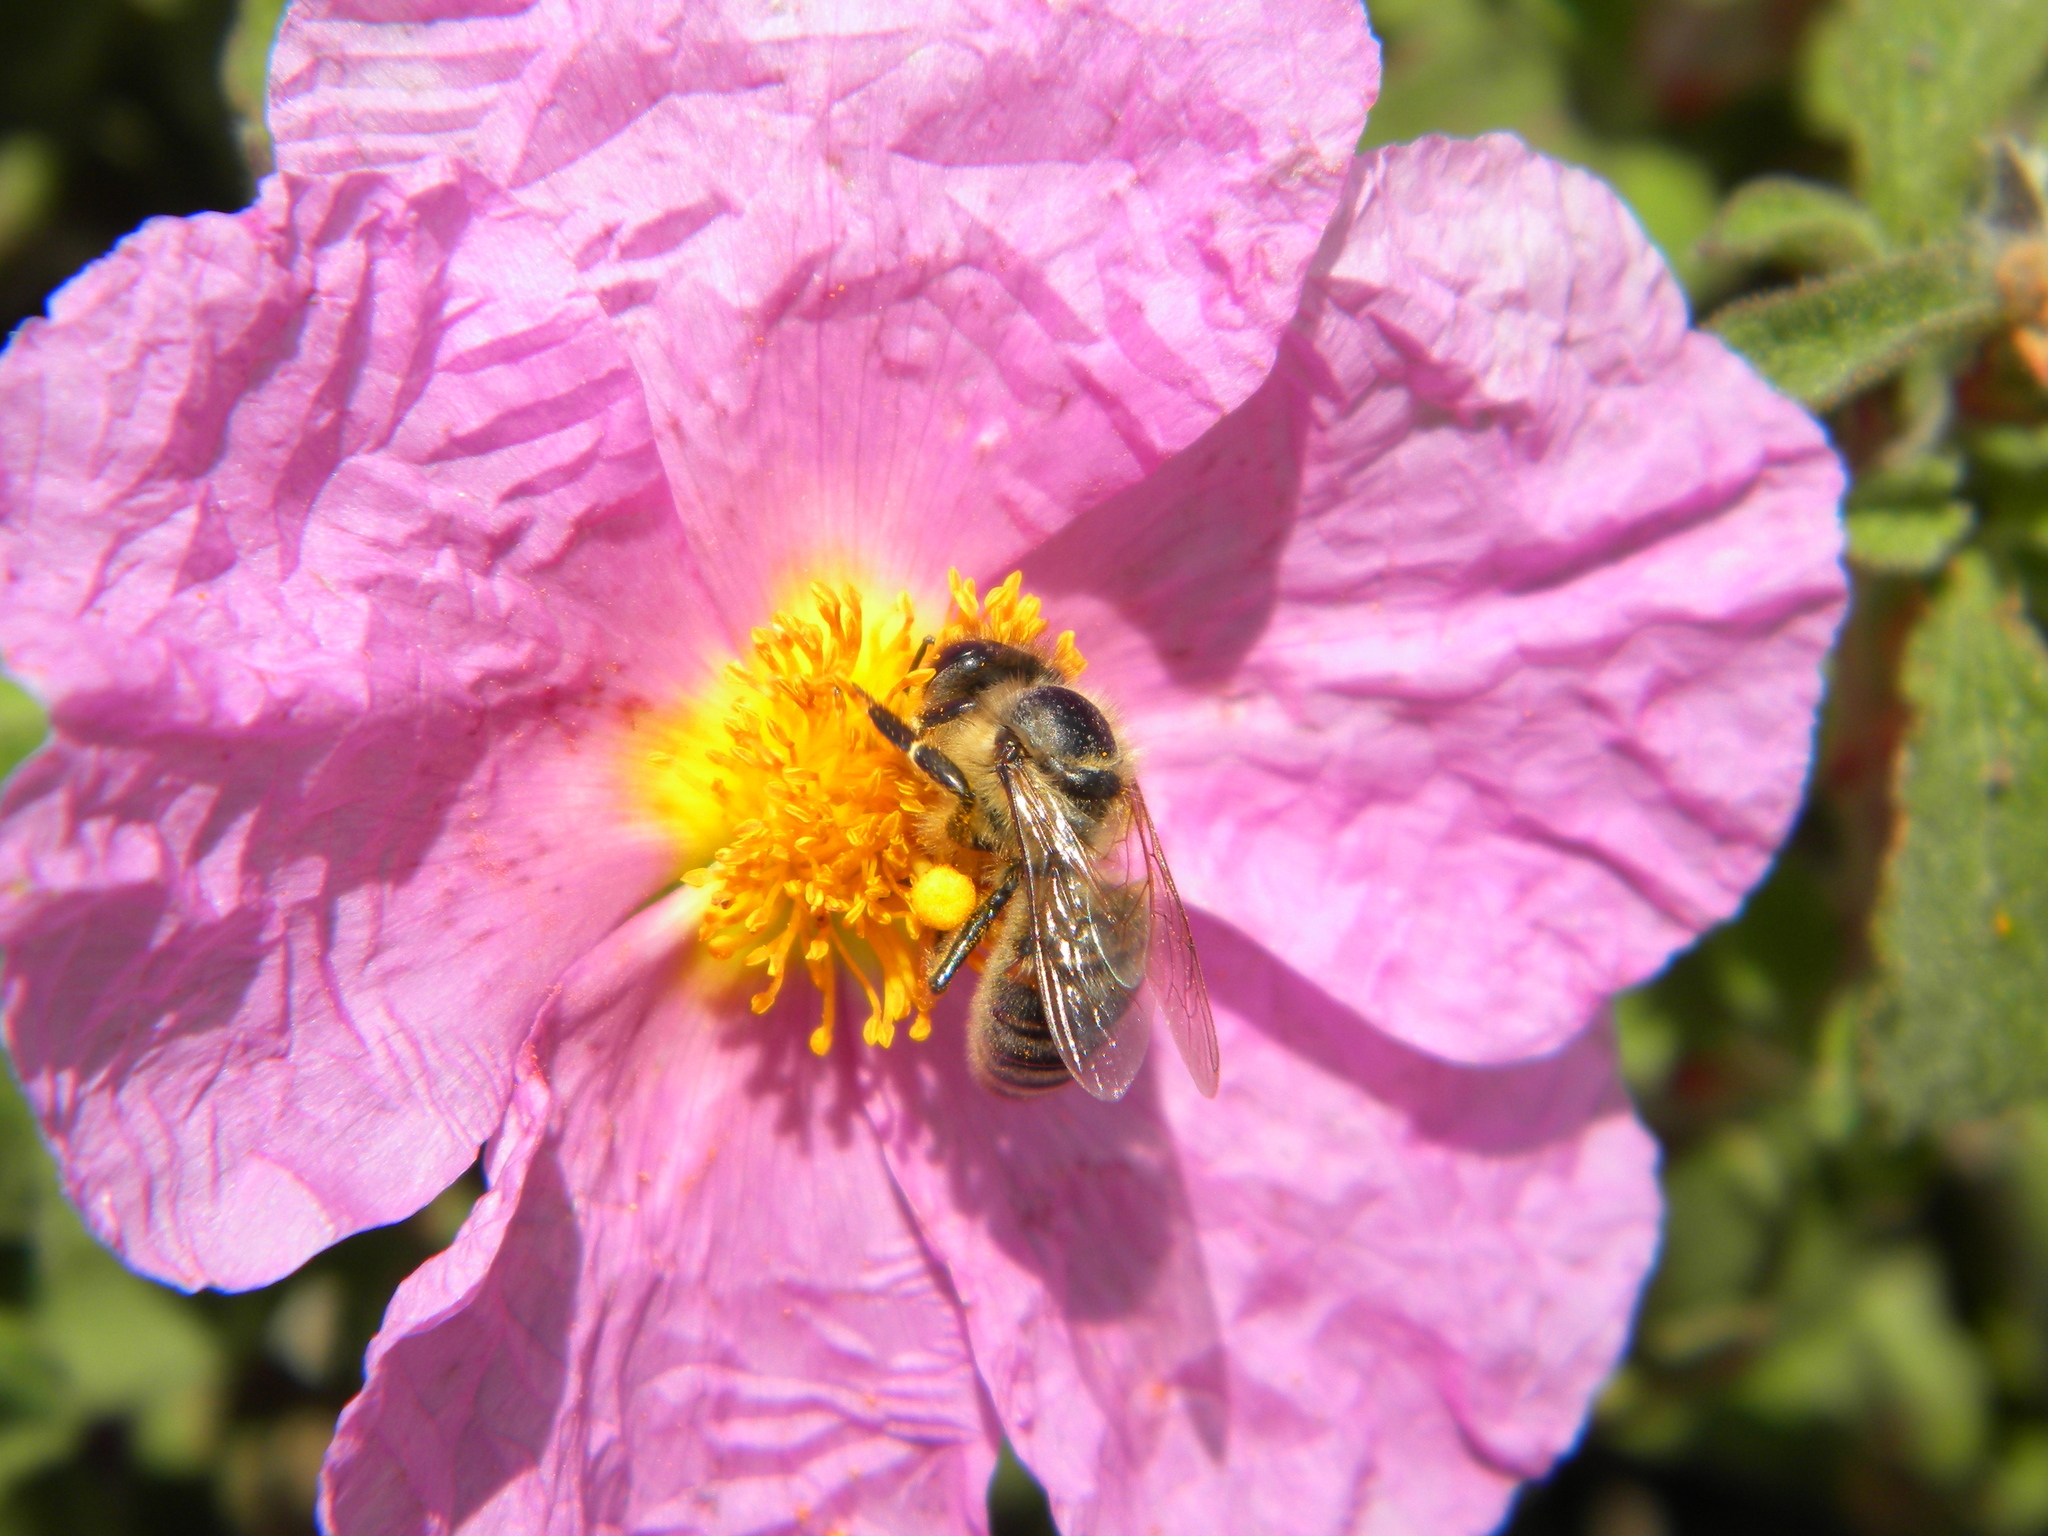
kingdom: Animalia
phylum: Arthropoda
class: Insecta
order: Hymenoptera
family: Apidae
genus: Apis
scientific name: Apis mellifera
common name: Honey bee
